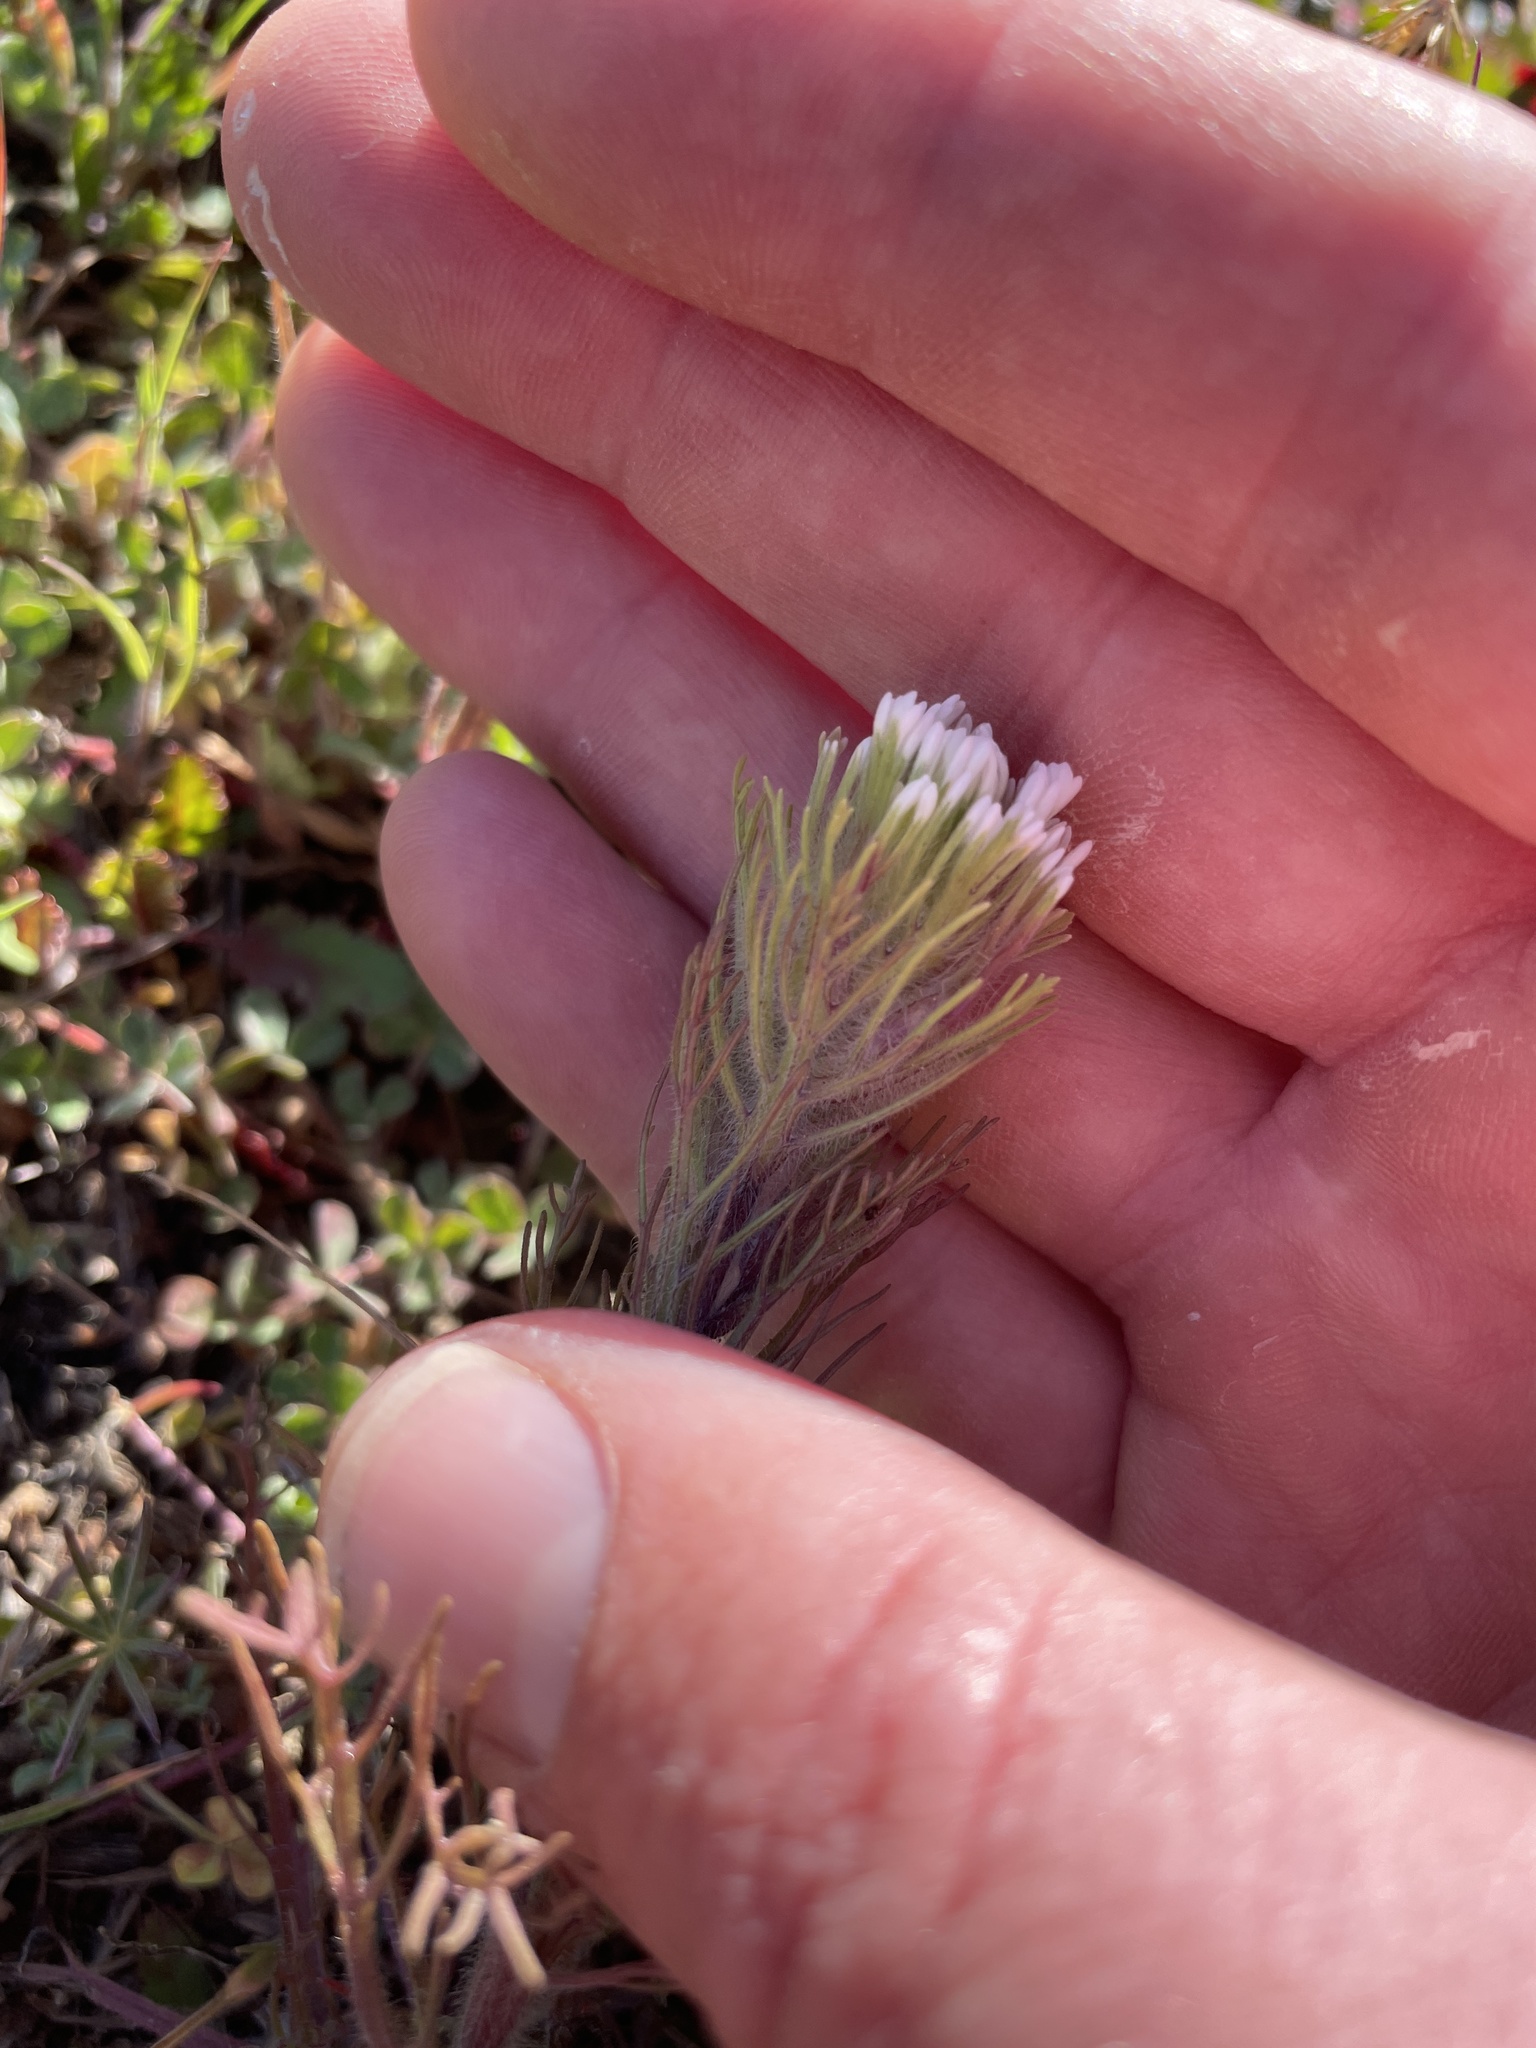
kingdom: Plantae
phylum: Tracheophyta
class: Magnoliopsida
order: Lamiales
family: Orobanchaceae
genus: Castilleja
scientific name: Castilleja exserta
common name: Purple owl-clover
